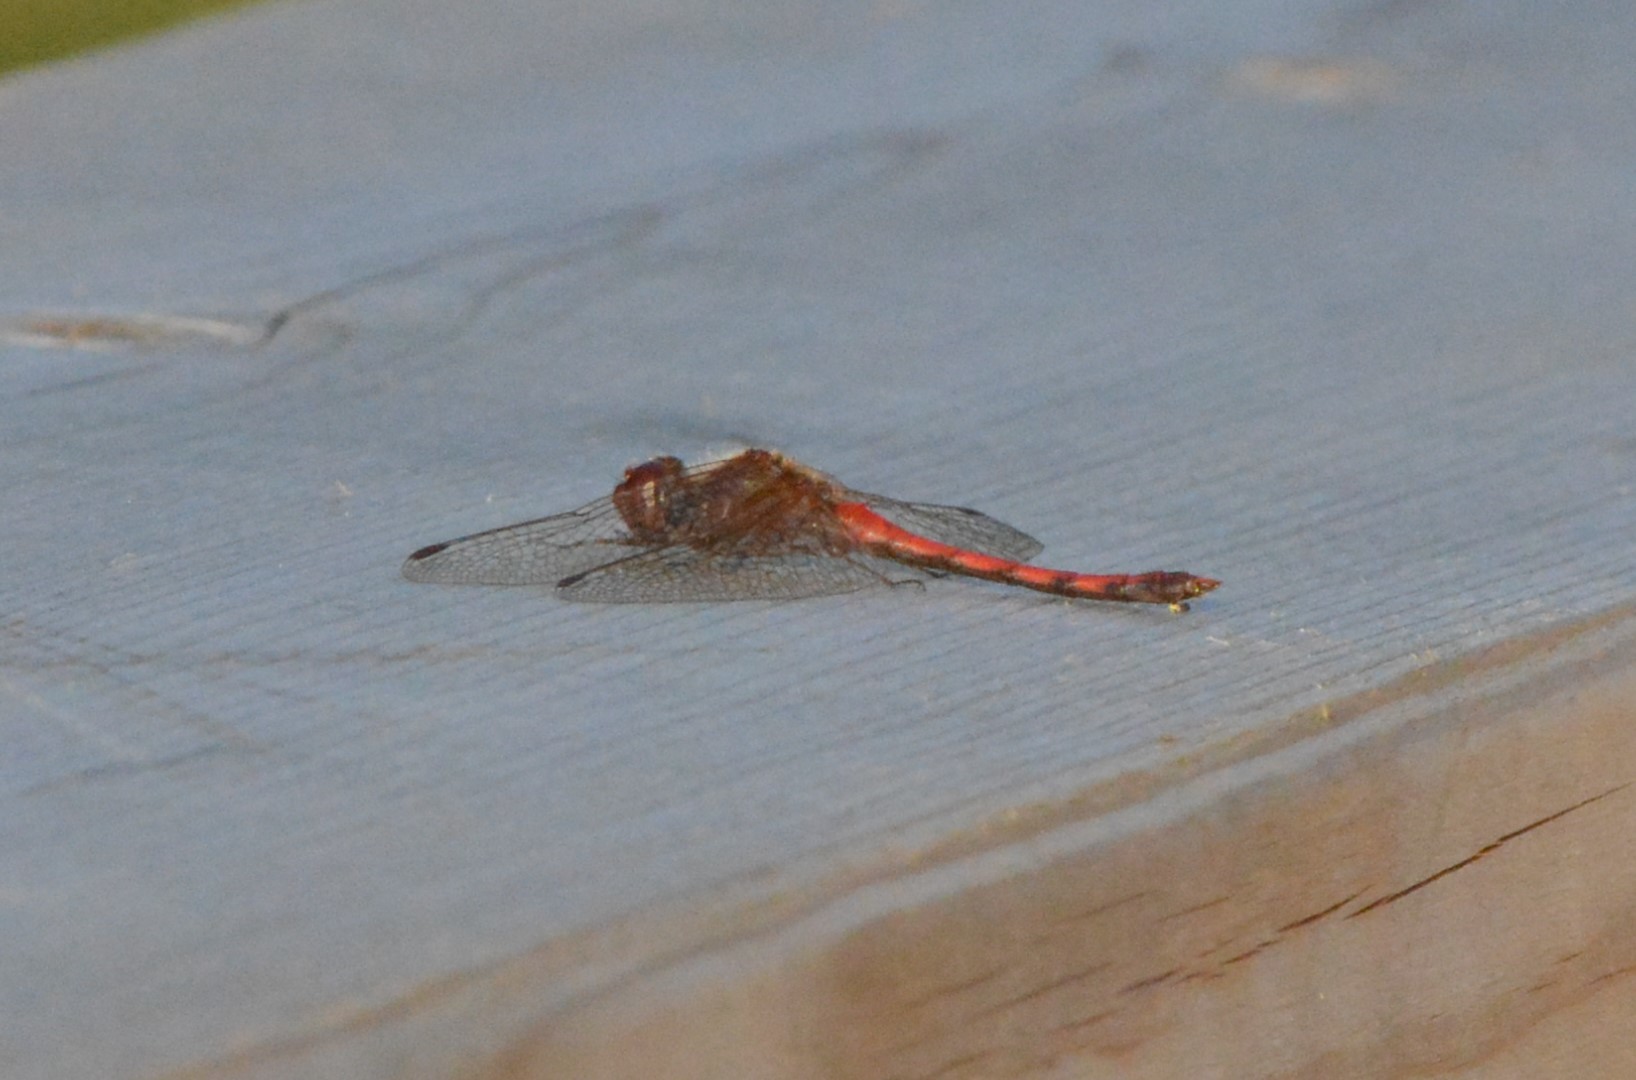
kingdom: Animalia
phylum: Arthropoda
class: Insecta
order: Odonata
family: Libellulidae
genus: Sympetrum
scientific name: Sympetrum vicinum
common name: Autumn meadowhawk
